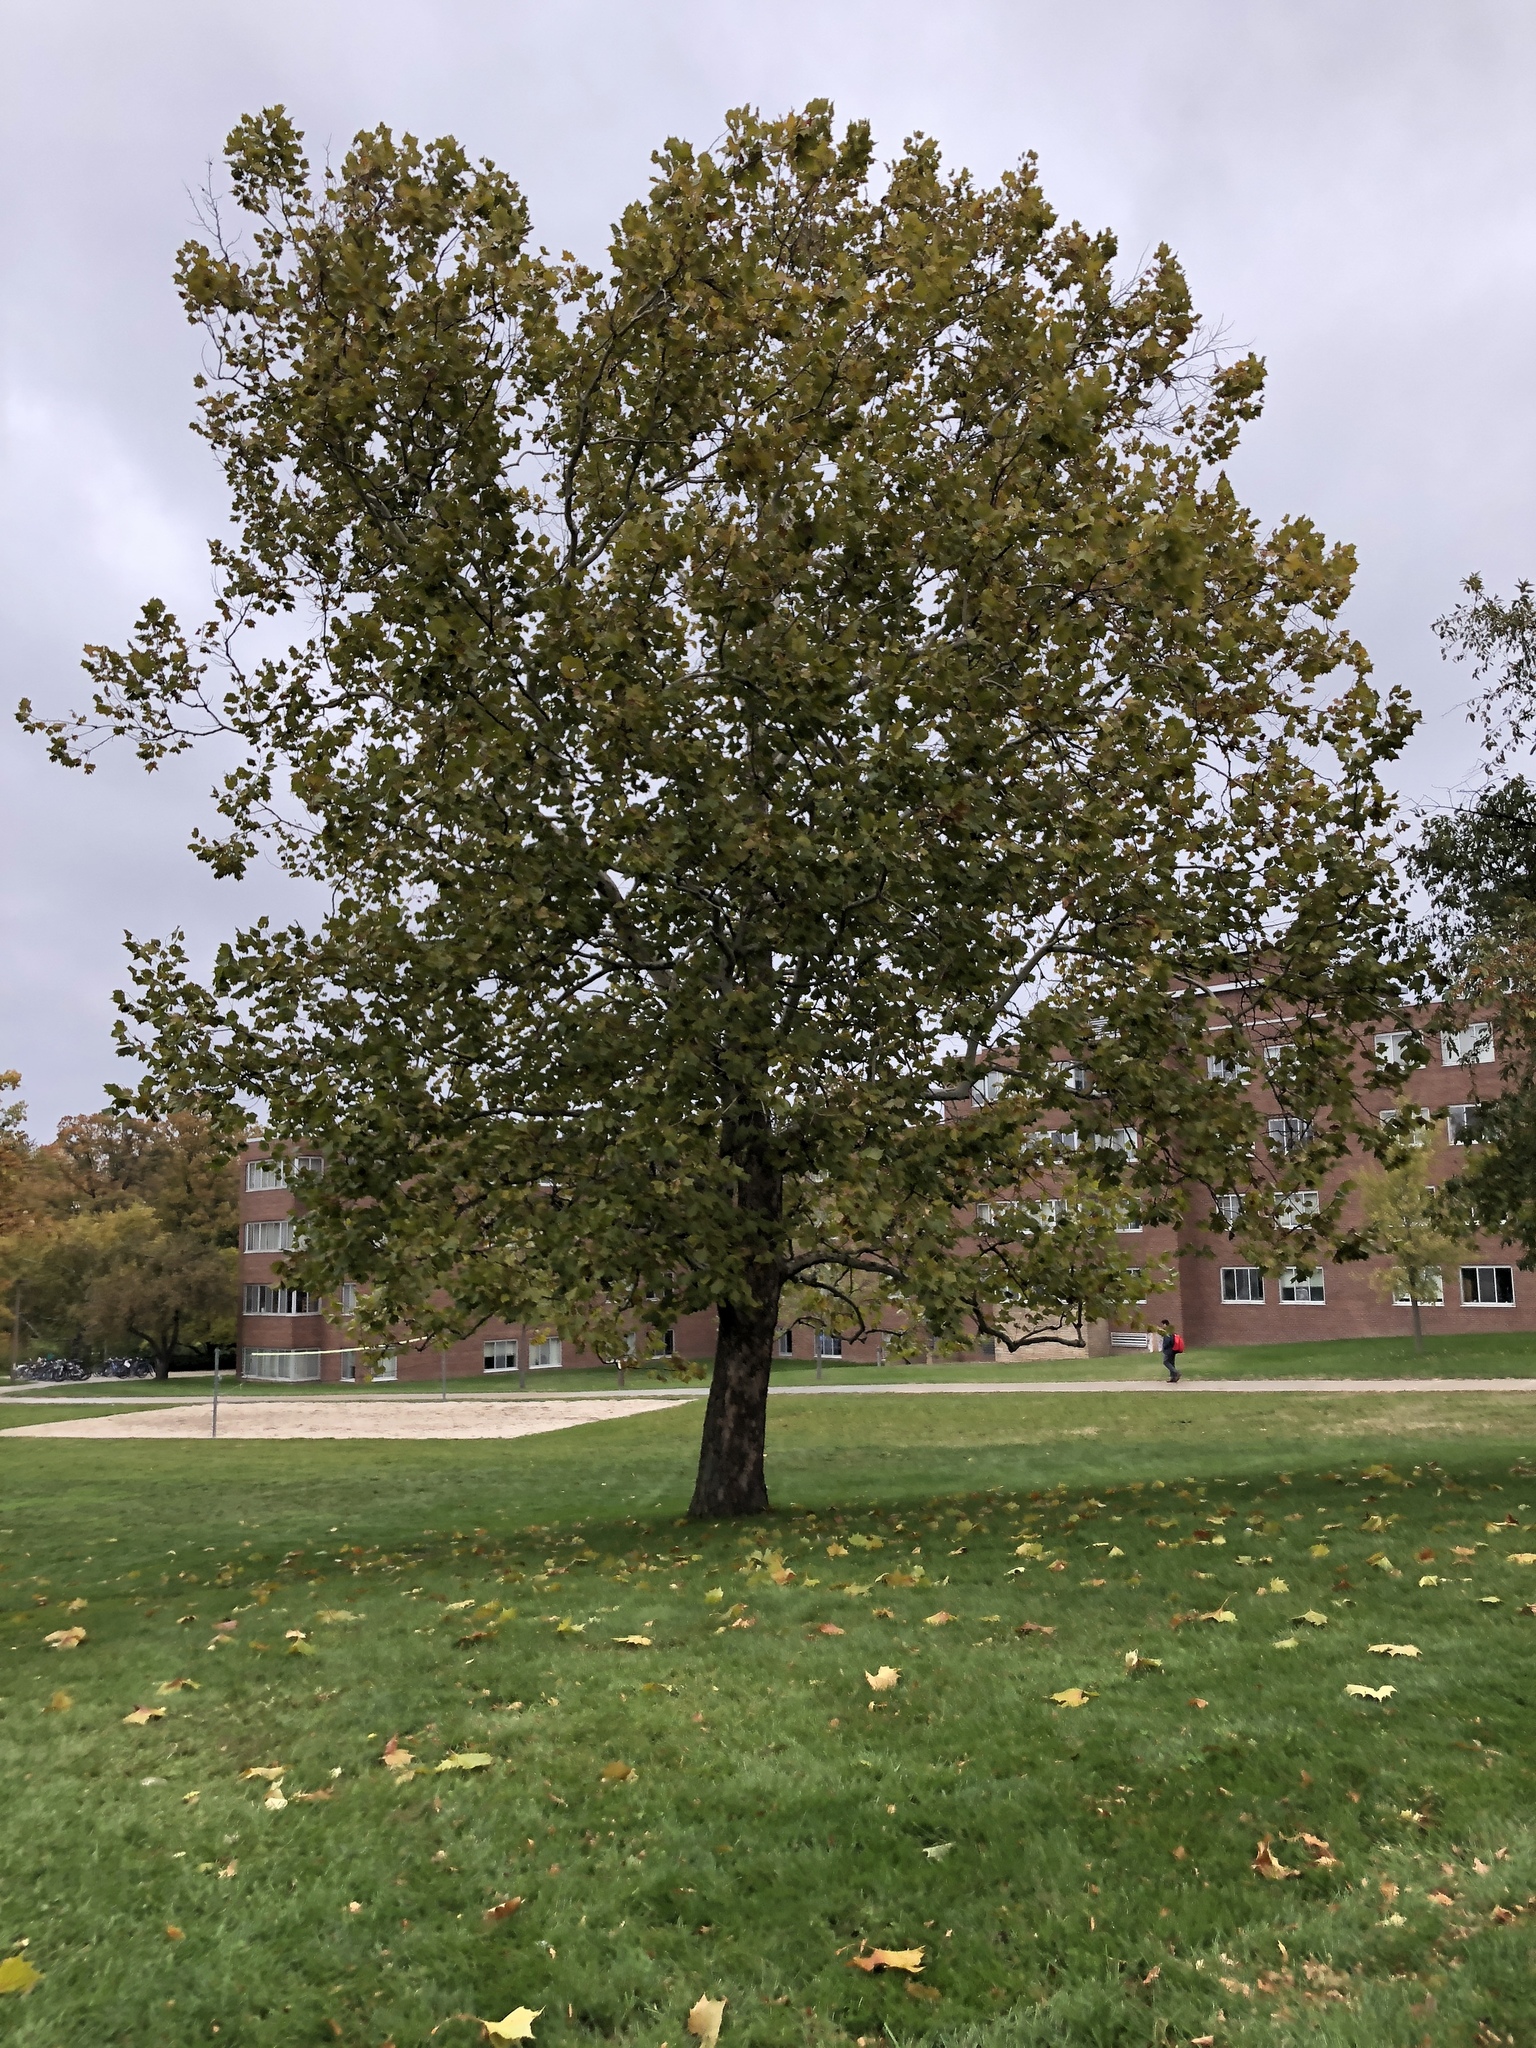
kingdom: Plantae
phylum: Tracheophyta
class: Magnoliopsida
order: Proteales
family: Platanaceae
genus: Platanus
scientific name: Platanus occidentalis
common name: American sycamore
